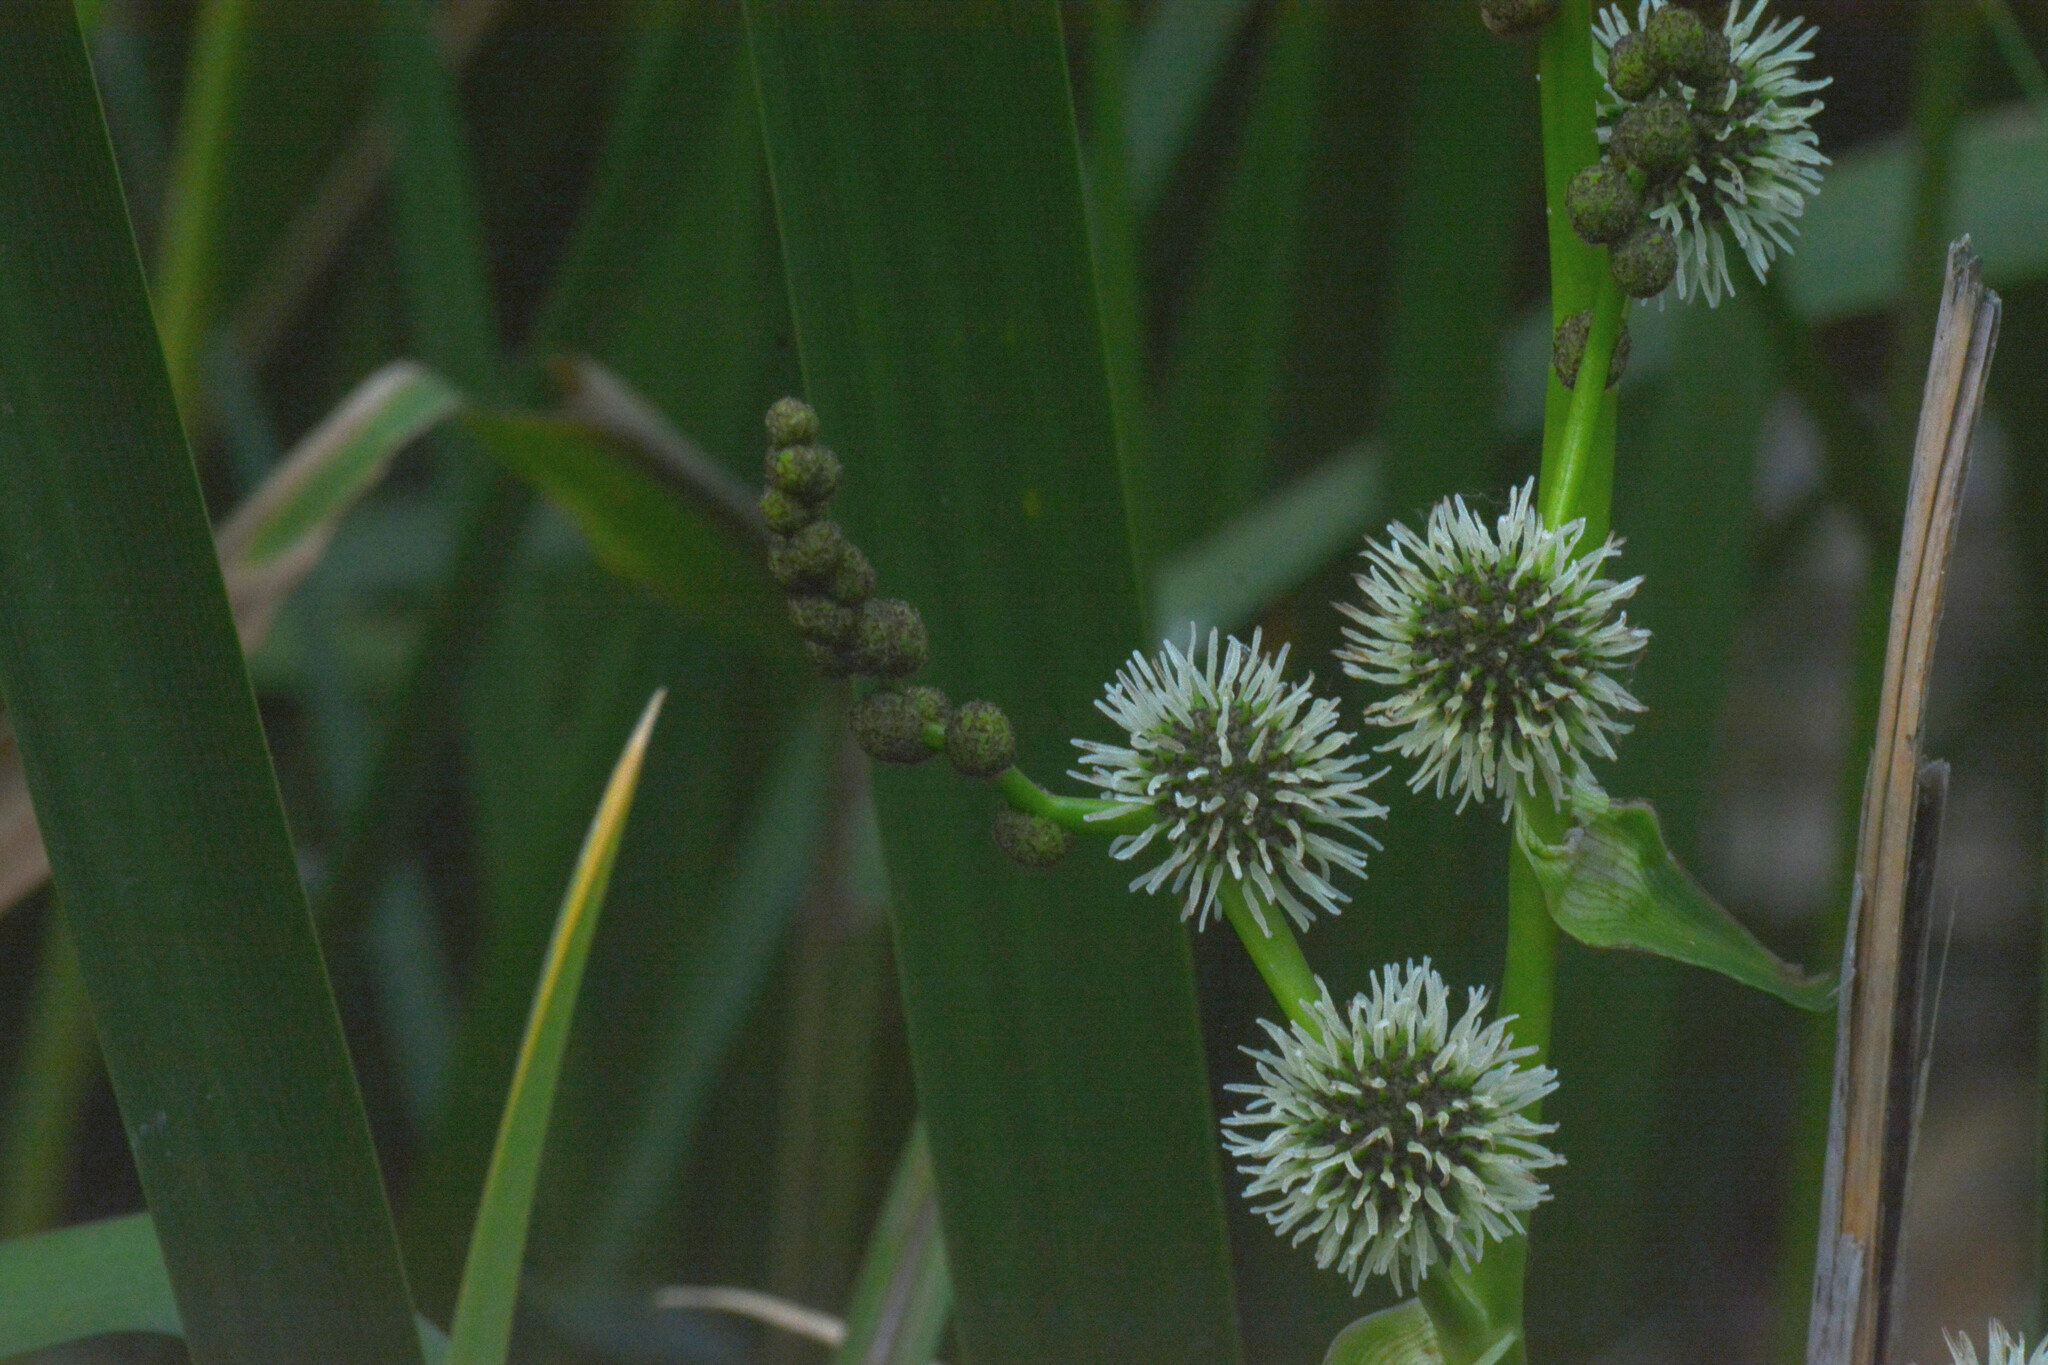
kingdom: Plantae
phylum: Tracheophyta
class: Liliopsida
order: Poales
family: Typhaceae
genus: Sparganium
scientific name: Sparganium erectum
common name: Branched bur-reed
